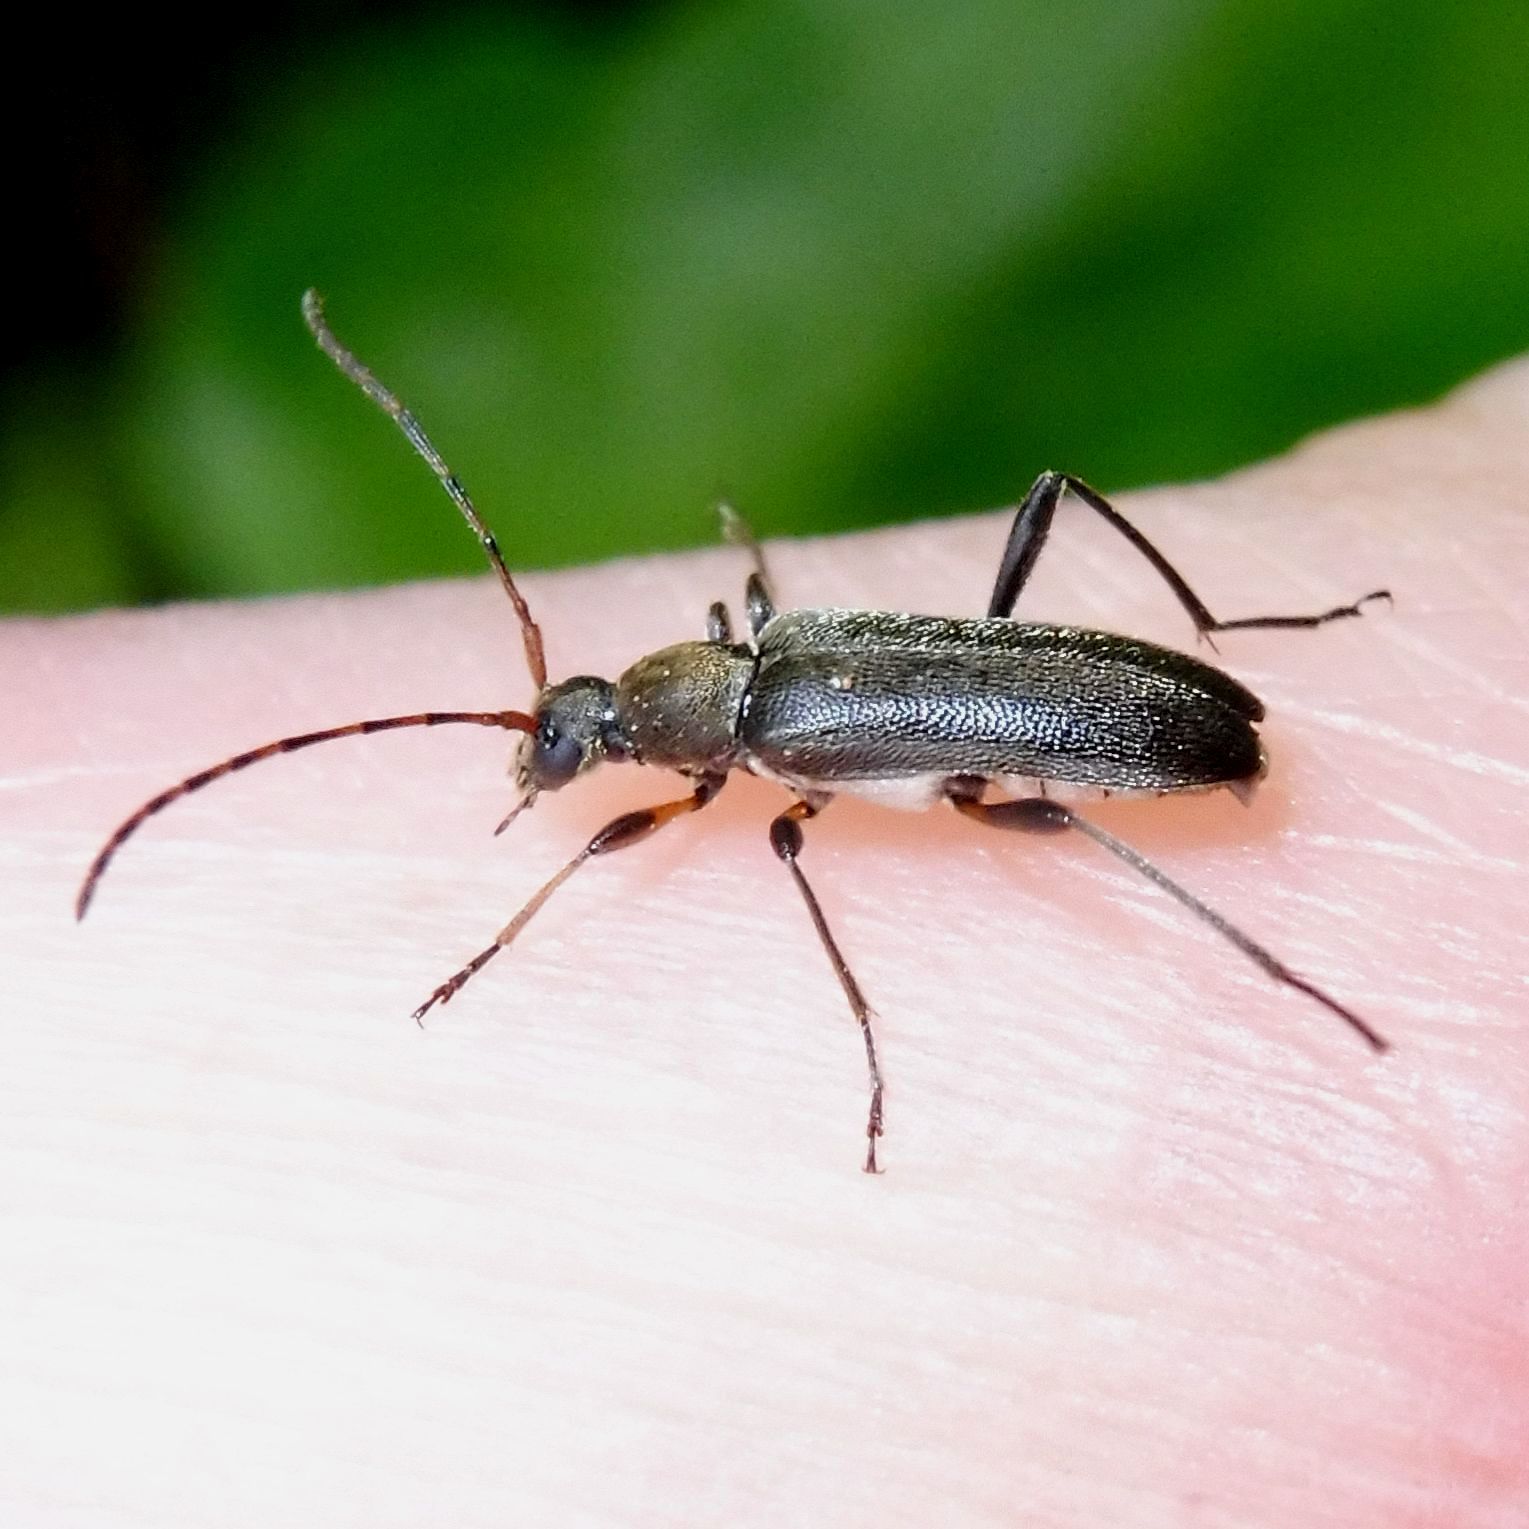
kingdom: Animalia
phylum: Arthropoda
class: Insecta
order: Coleoptera
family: Cerambycidae
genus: Grammoptera
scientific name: Grammoptera ruficornis
